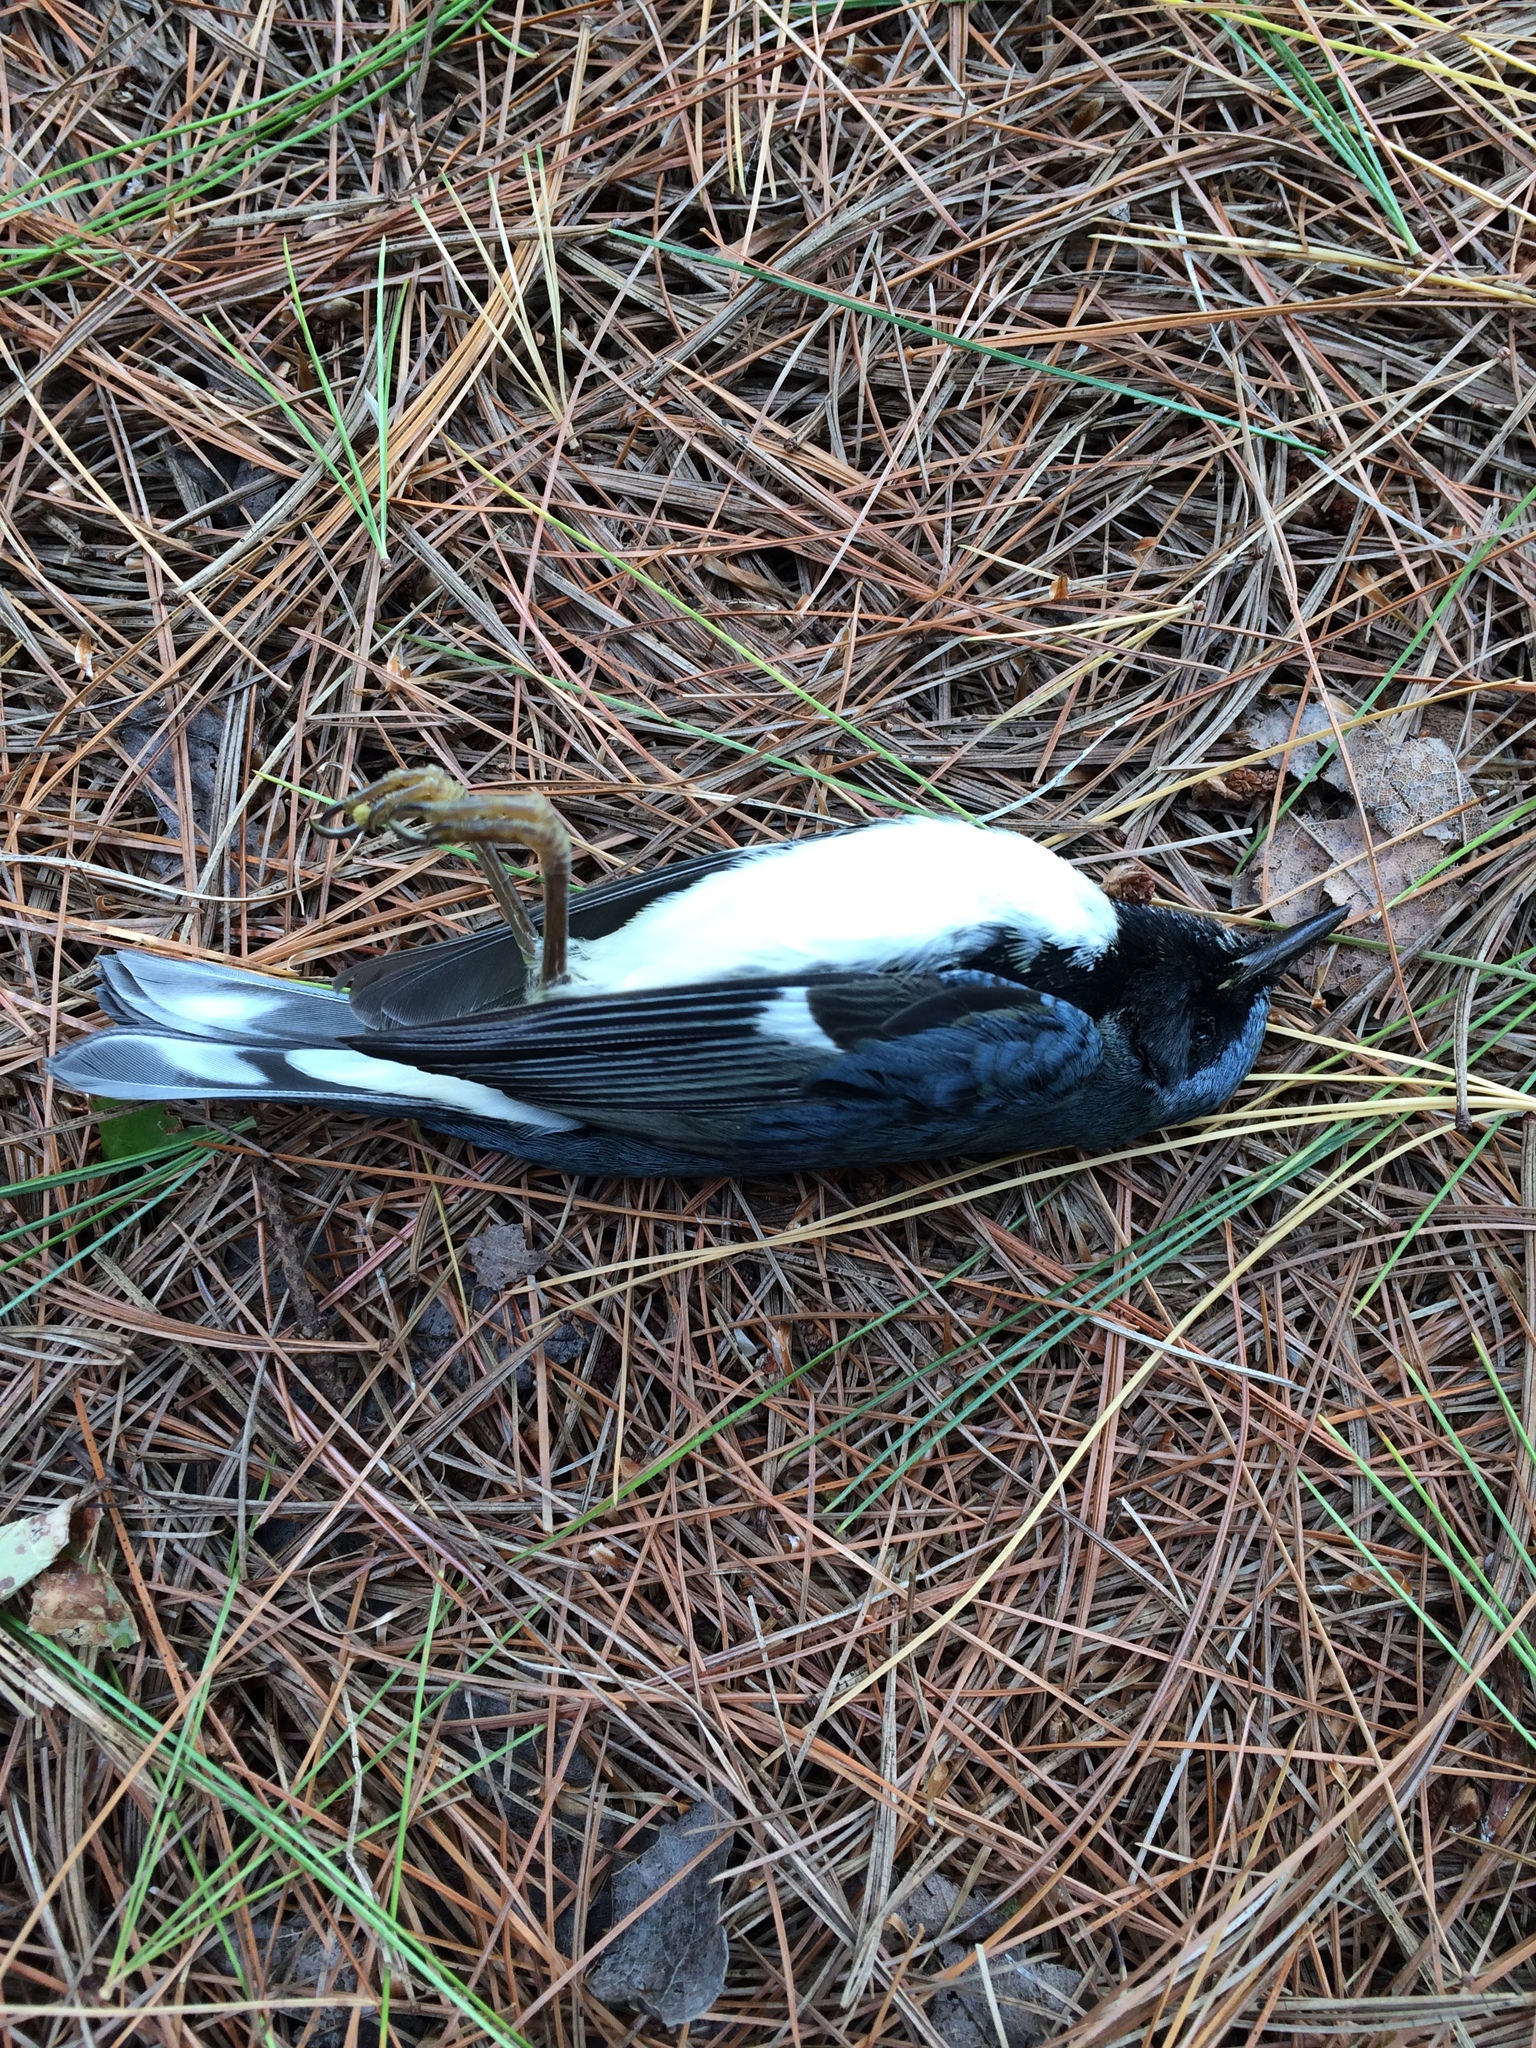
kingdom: Animalia
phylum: Chordata
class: Aves
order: Passeriformes
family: Parulidae
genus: Setophaga
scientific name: Setophaga caerulescens
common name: Black-throated blue warbler
